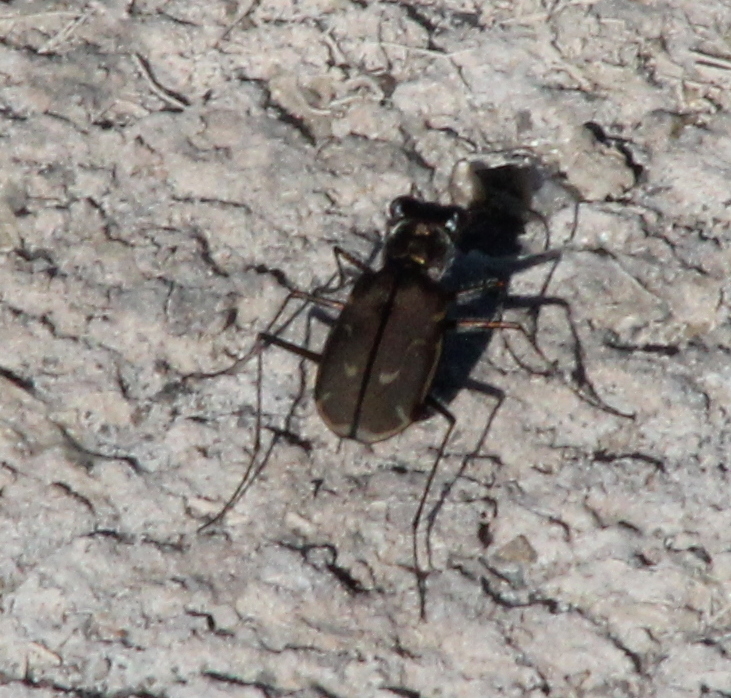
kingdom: Animalia
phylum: Arthropoda
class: Insecta
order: Coleoptera
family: Carabidae
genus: Cicindela
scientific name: Cicindela tenuisignata
